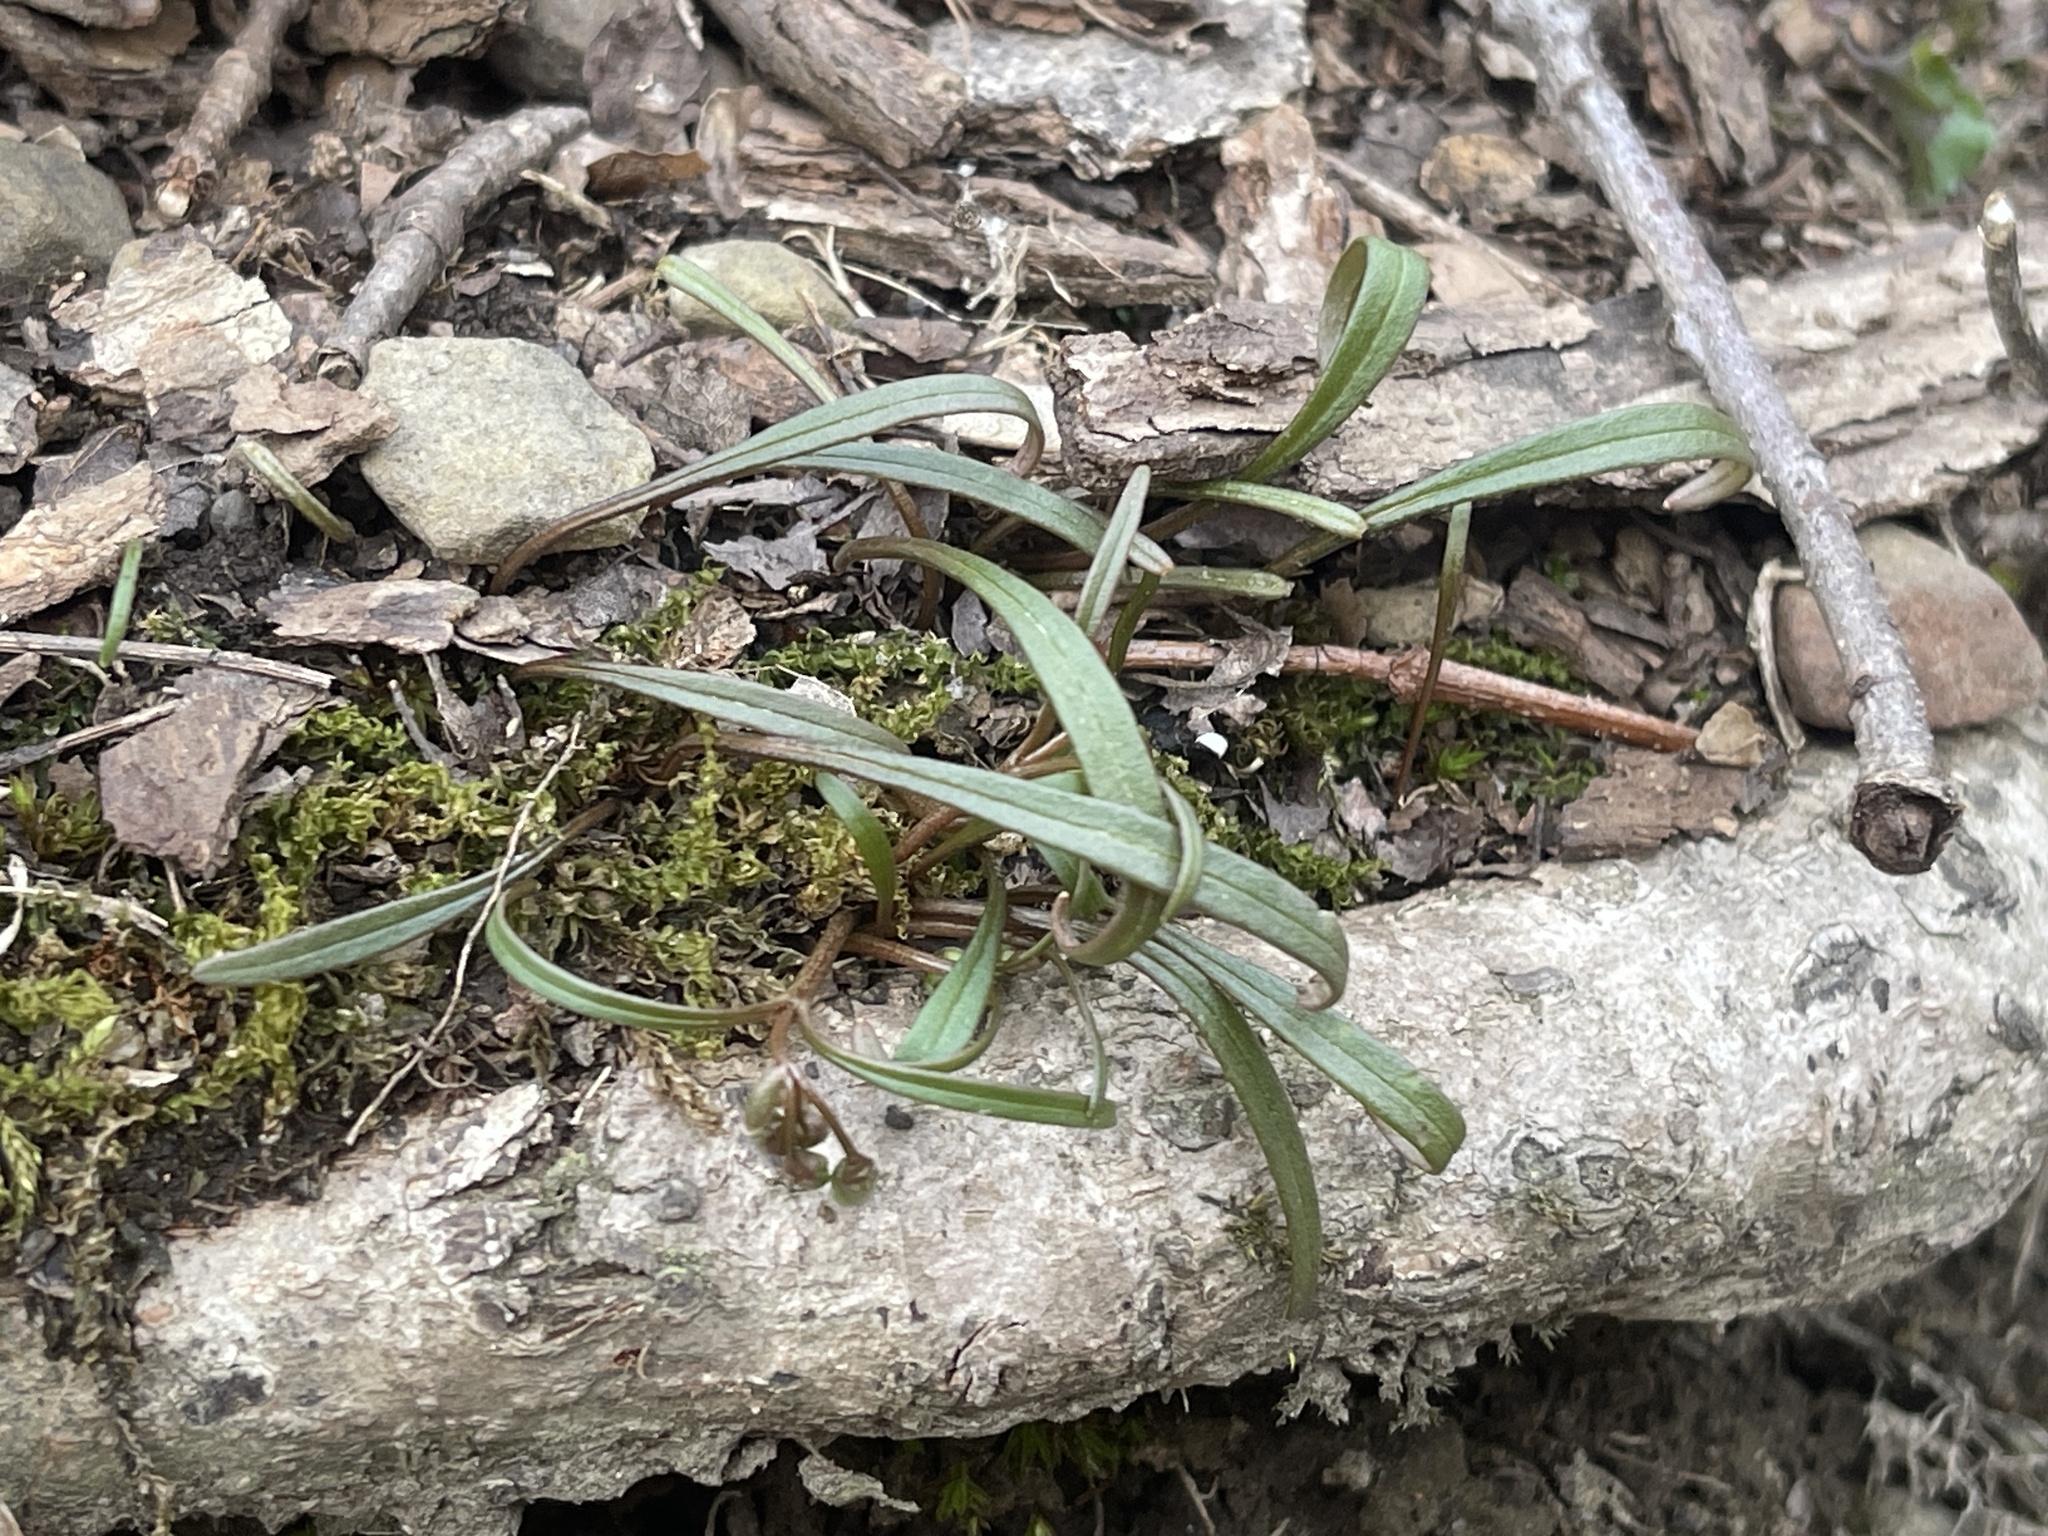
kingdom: Plantae
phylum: Tracheophyta
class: Magnoliopsida
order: Caryophyllales
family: Montiaceae
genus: Claytonia
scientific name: Claytonia virginica
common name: Virginia springbeauty
